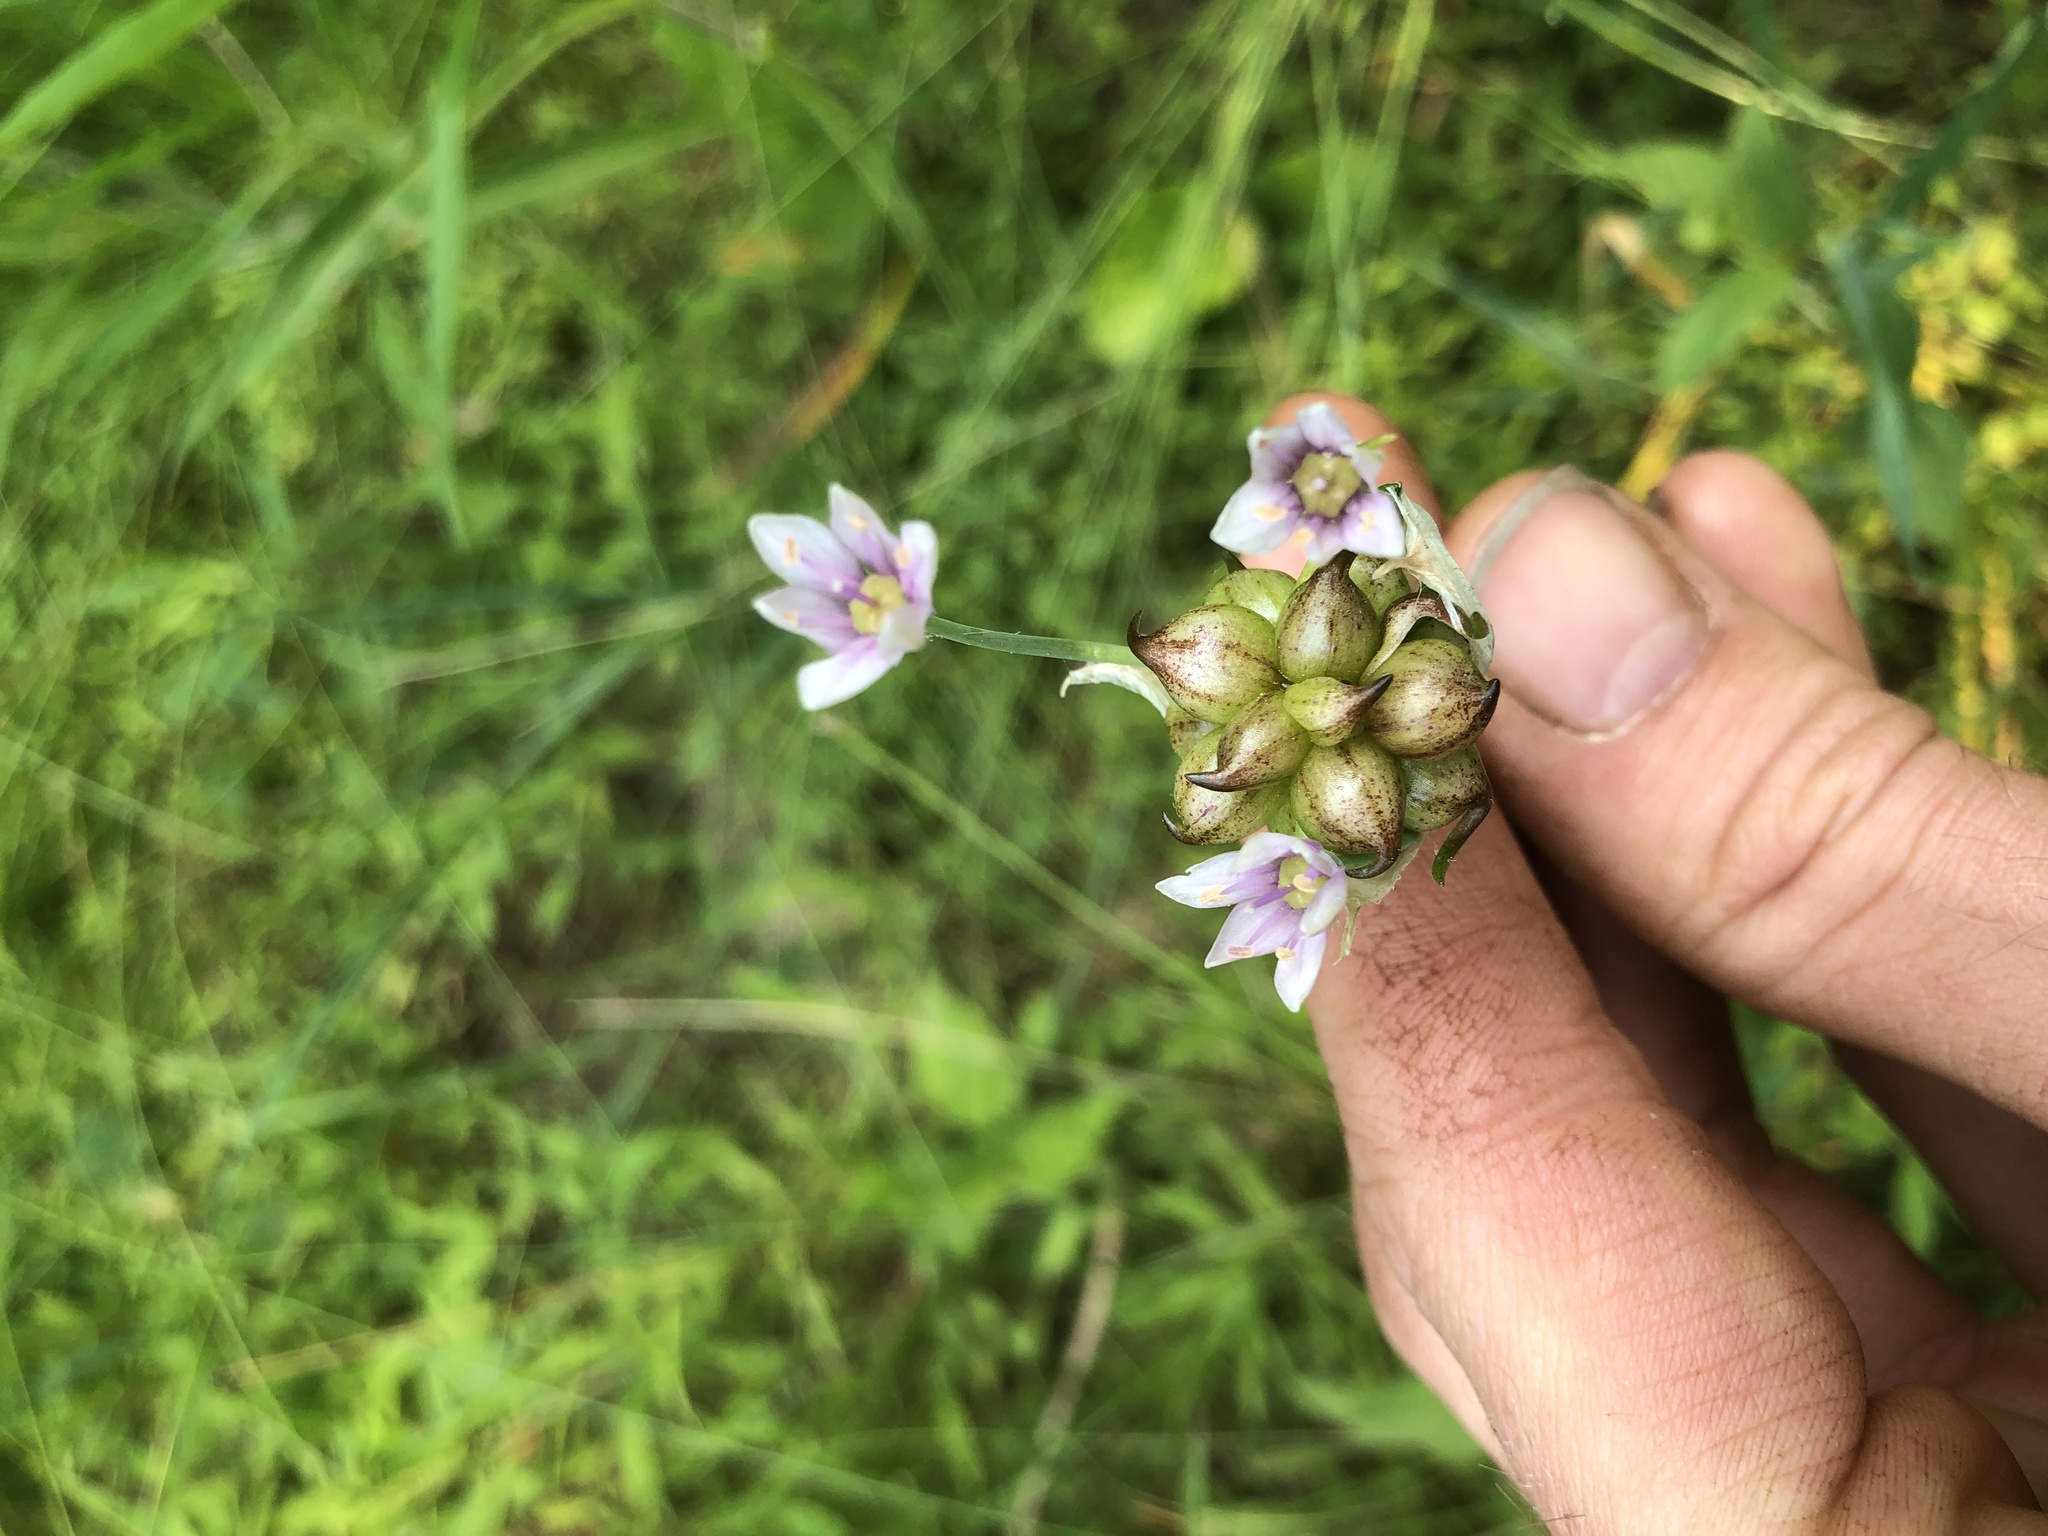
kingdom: Plantae
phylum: Tracheophyta
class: Liliopsida
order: Asparagales
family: Amaryllidaceae
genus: Allium
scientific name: Allium canadense
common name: Meadow garlic
